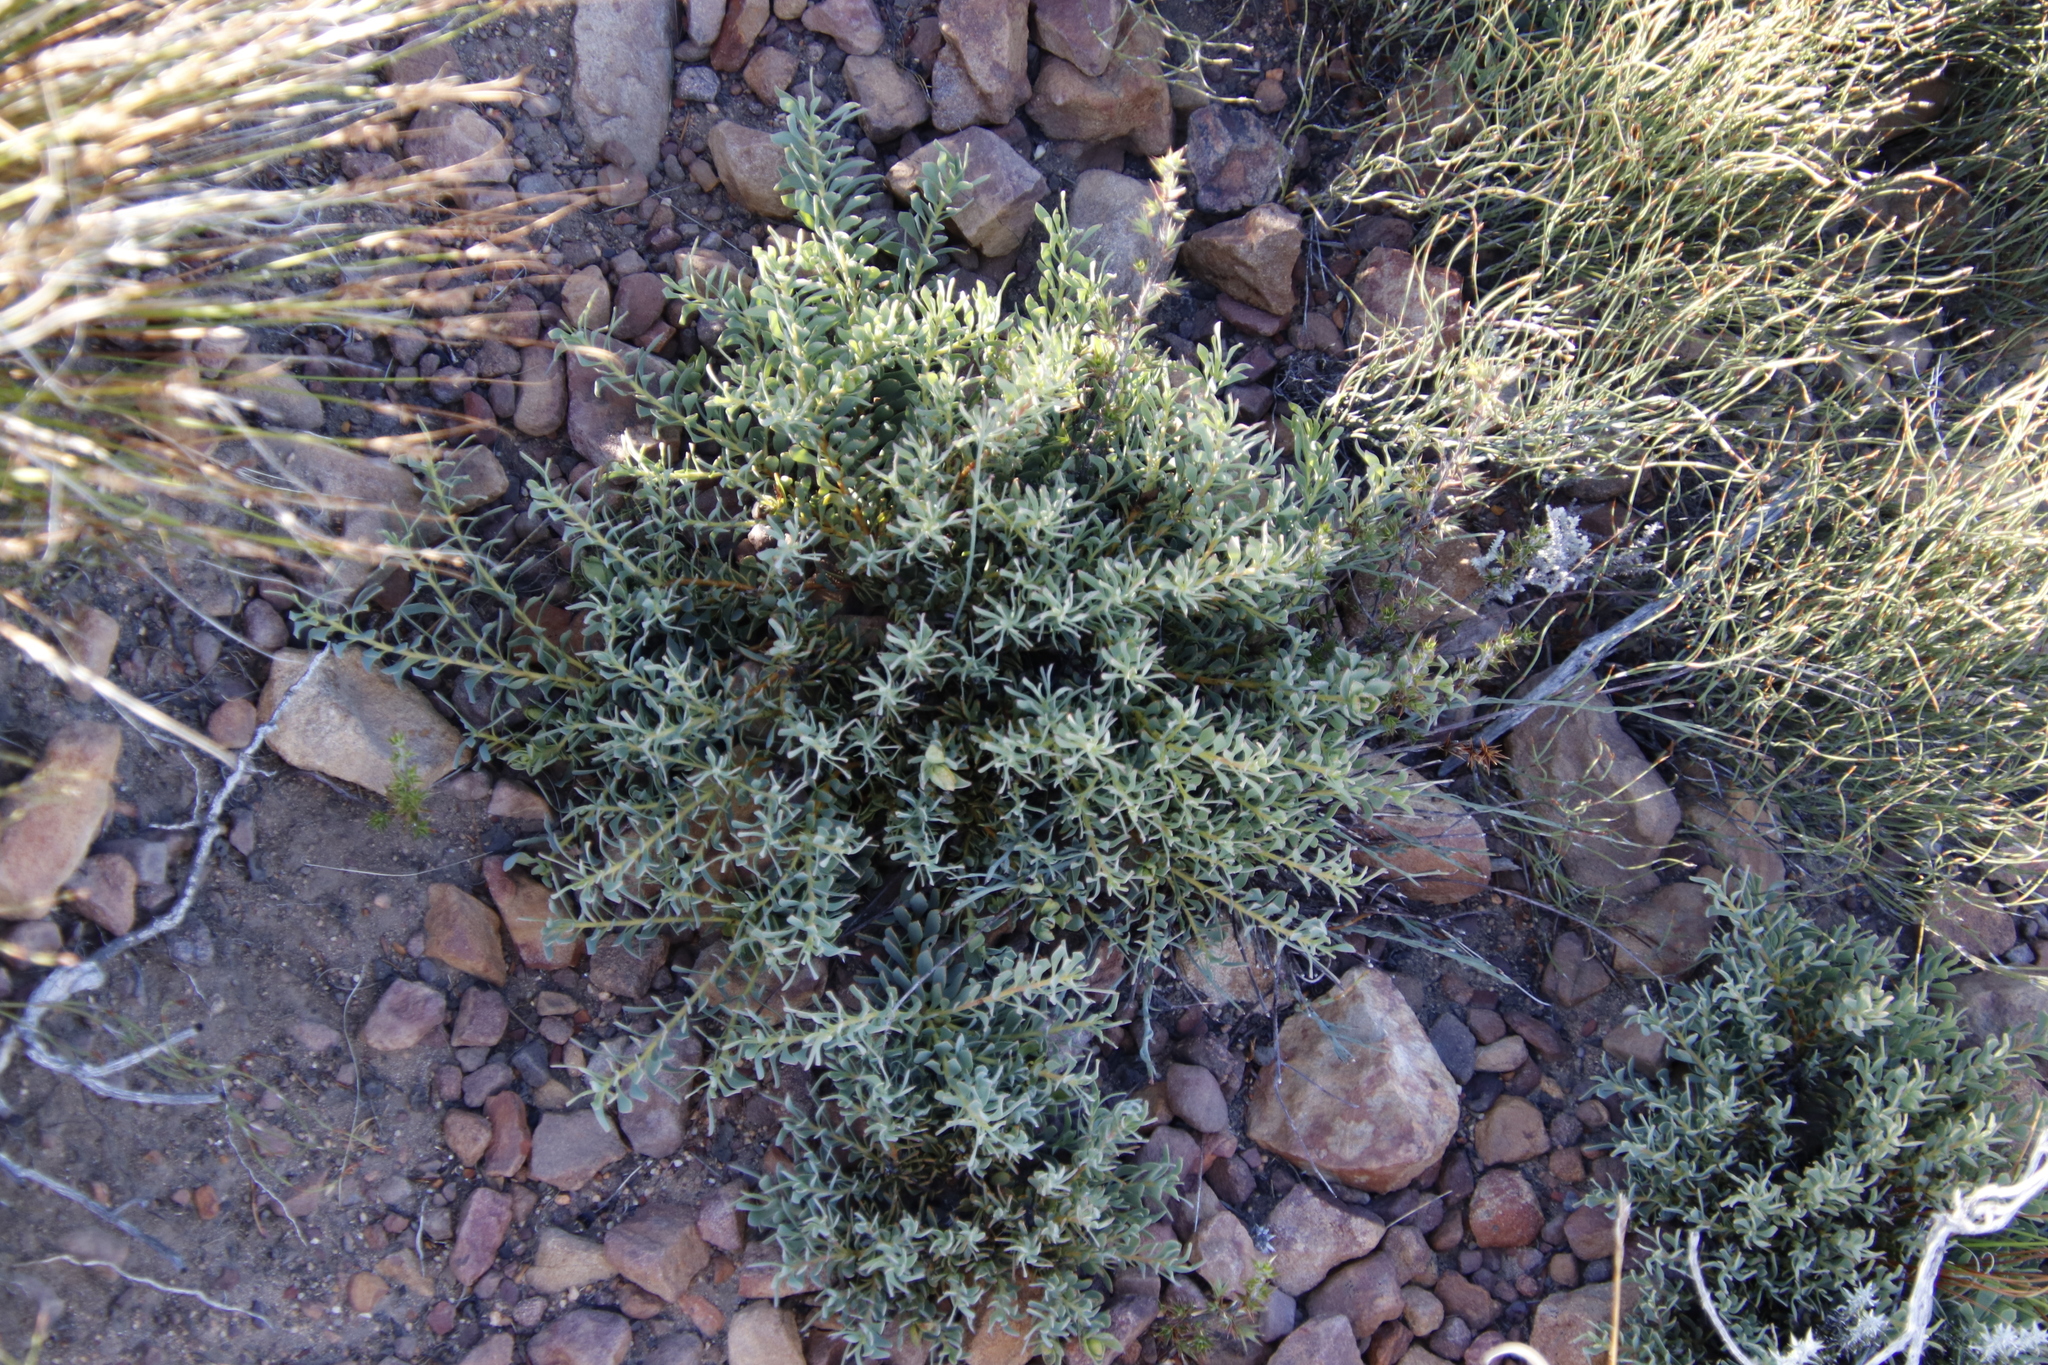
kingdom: Plantae
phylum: Tracheophyta
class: Magnoliopsida
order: Proteales
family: Proteaceae
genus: Leucadendron
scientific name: Leucadendron glaberrimum
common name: Common oily conebush
